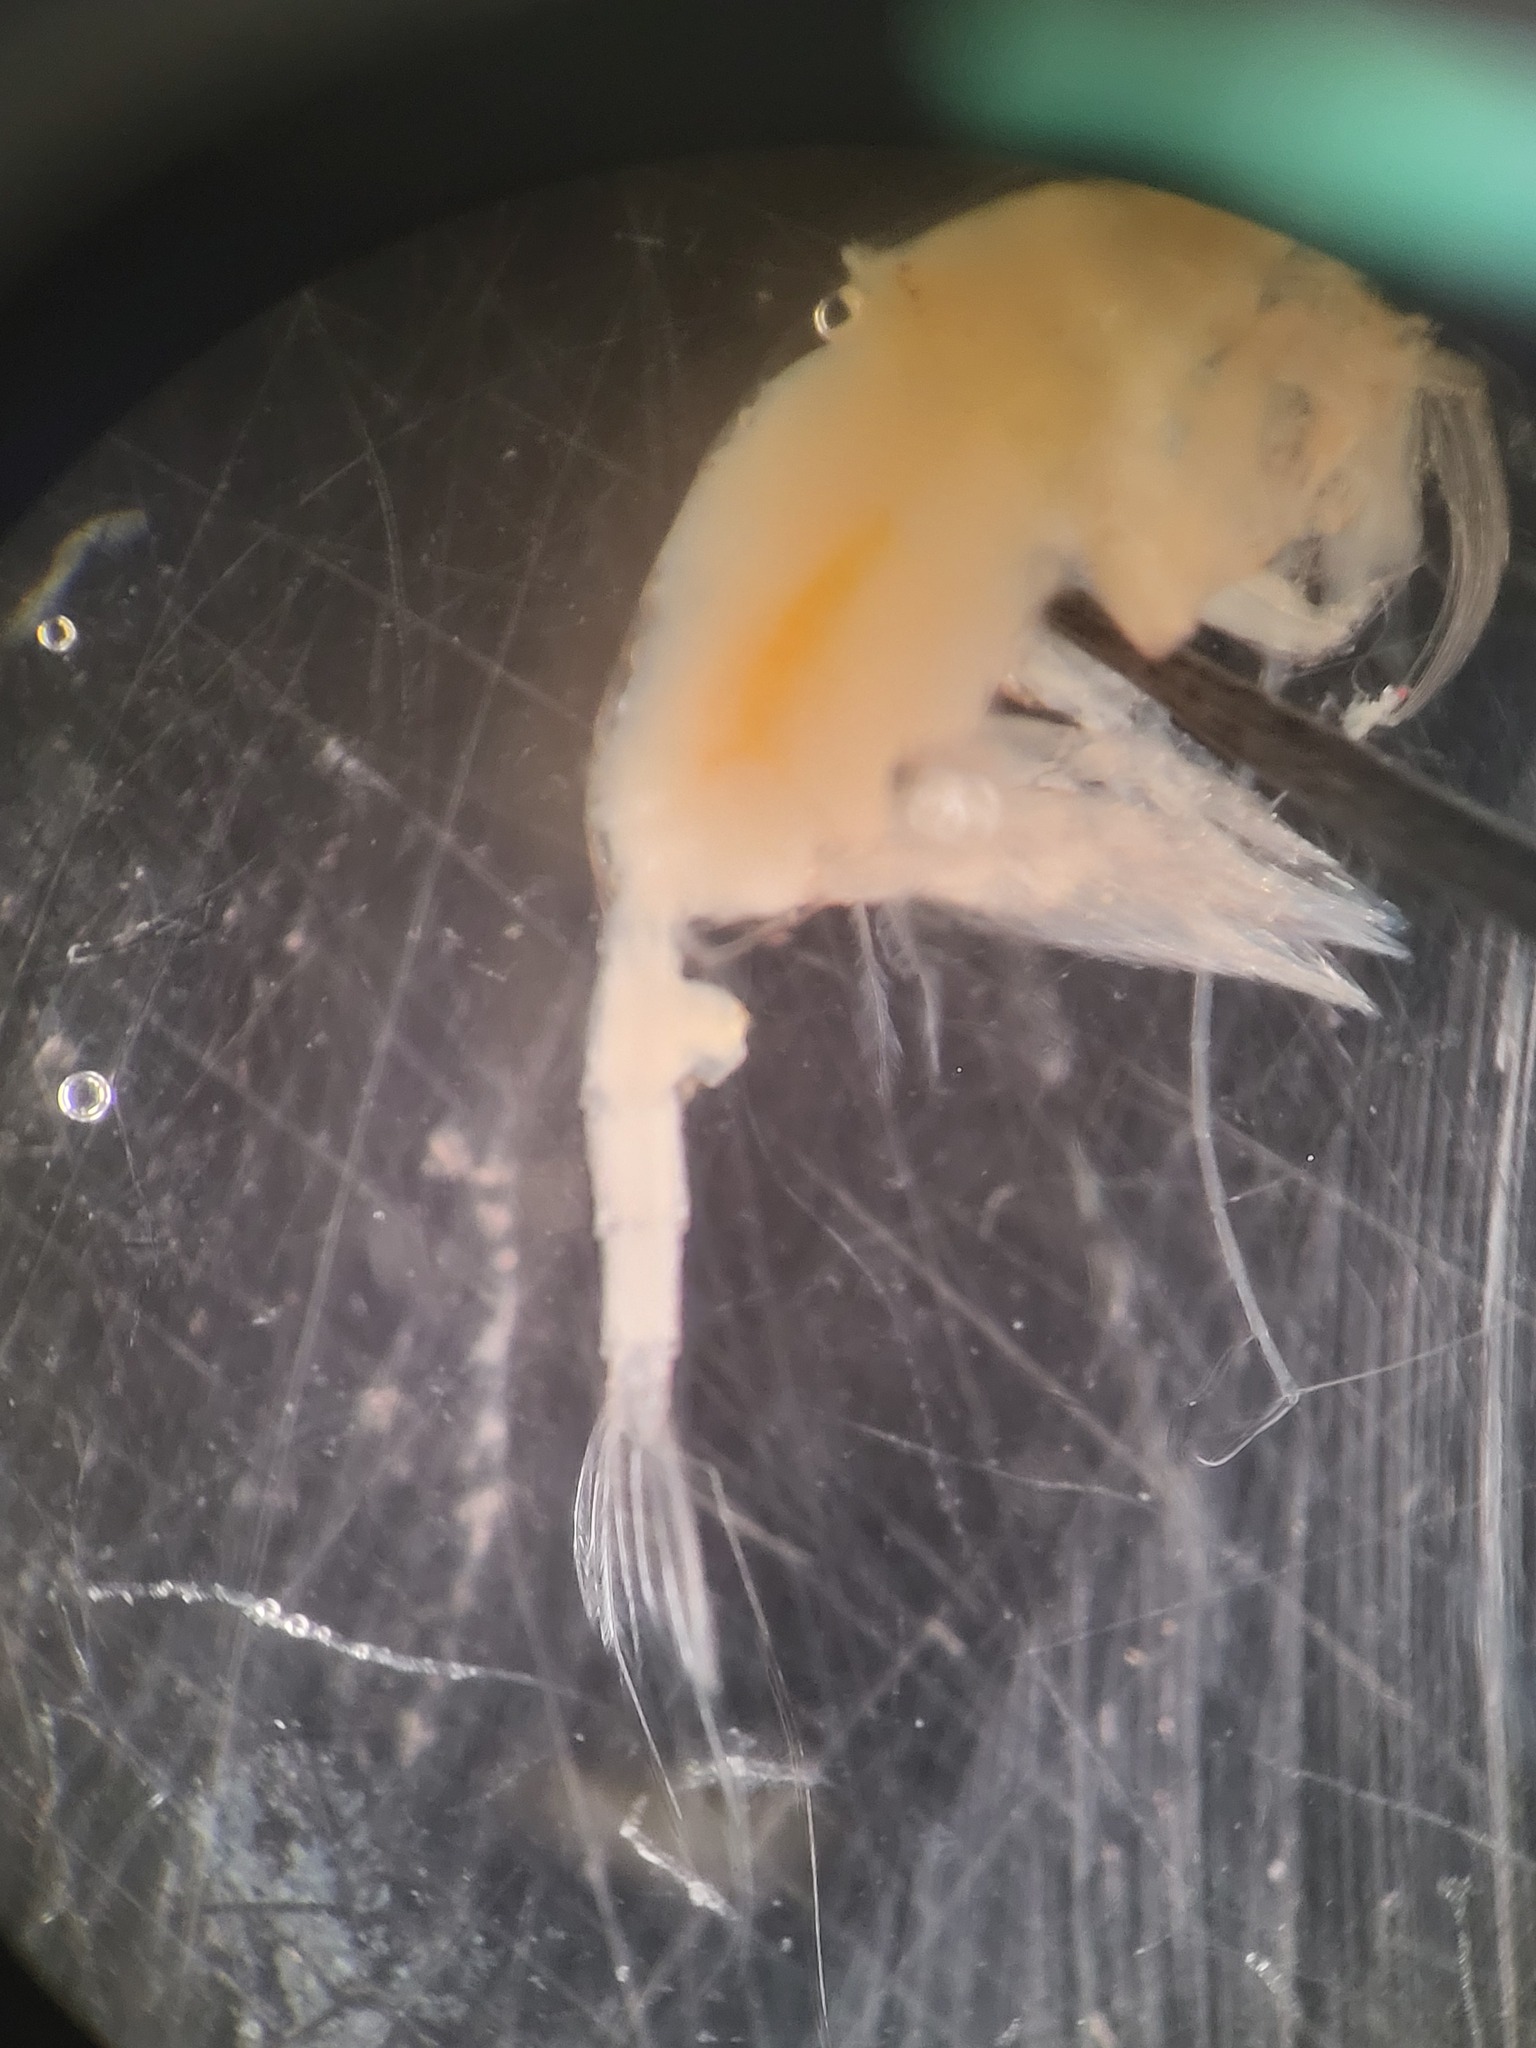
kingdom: Animalia
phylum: Arthropoda
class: Copepoda
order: Calanoida
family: Euchaetidae
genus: Paraeuchaeta
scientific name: Paraeuchaeta norvegica
